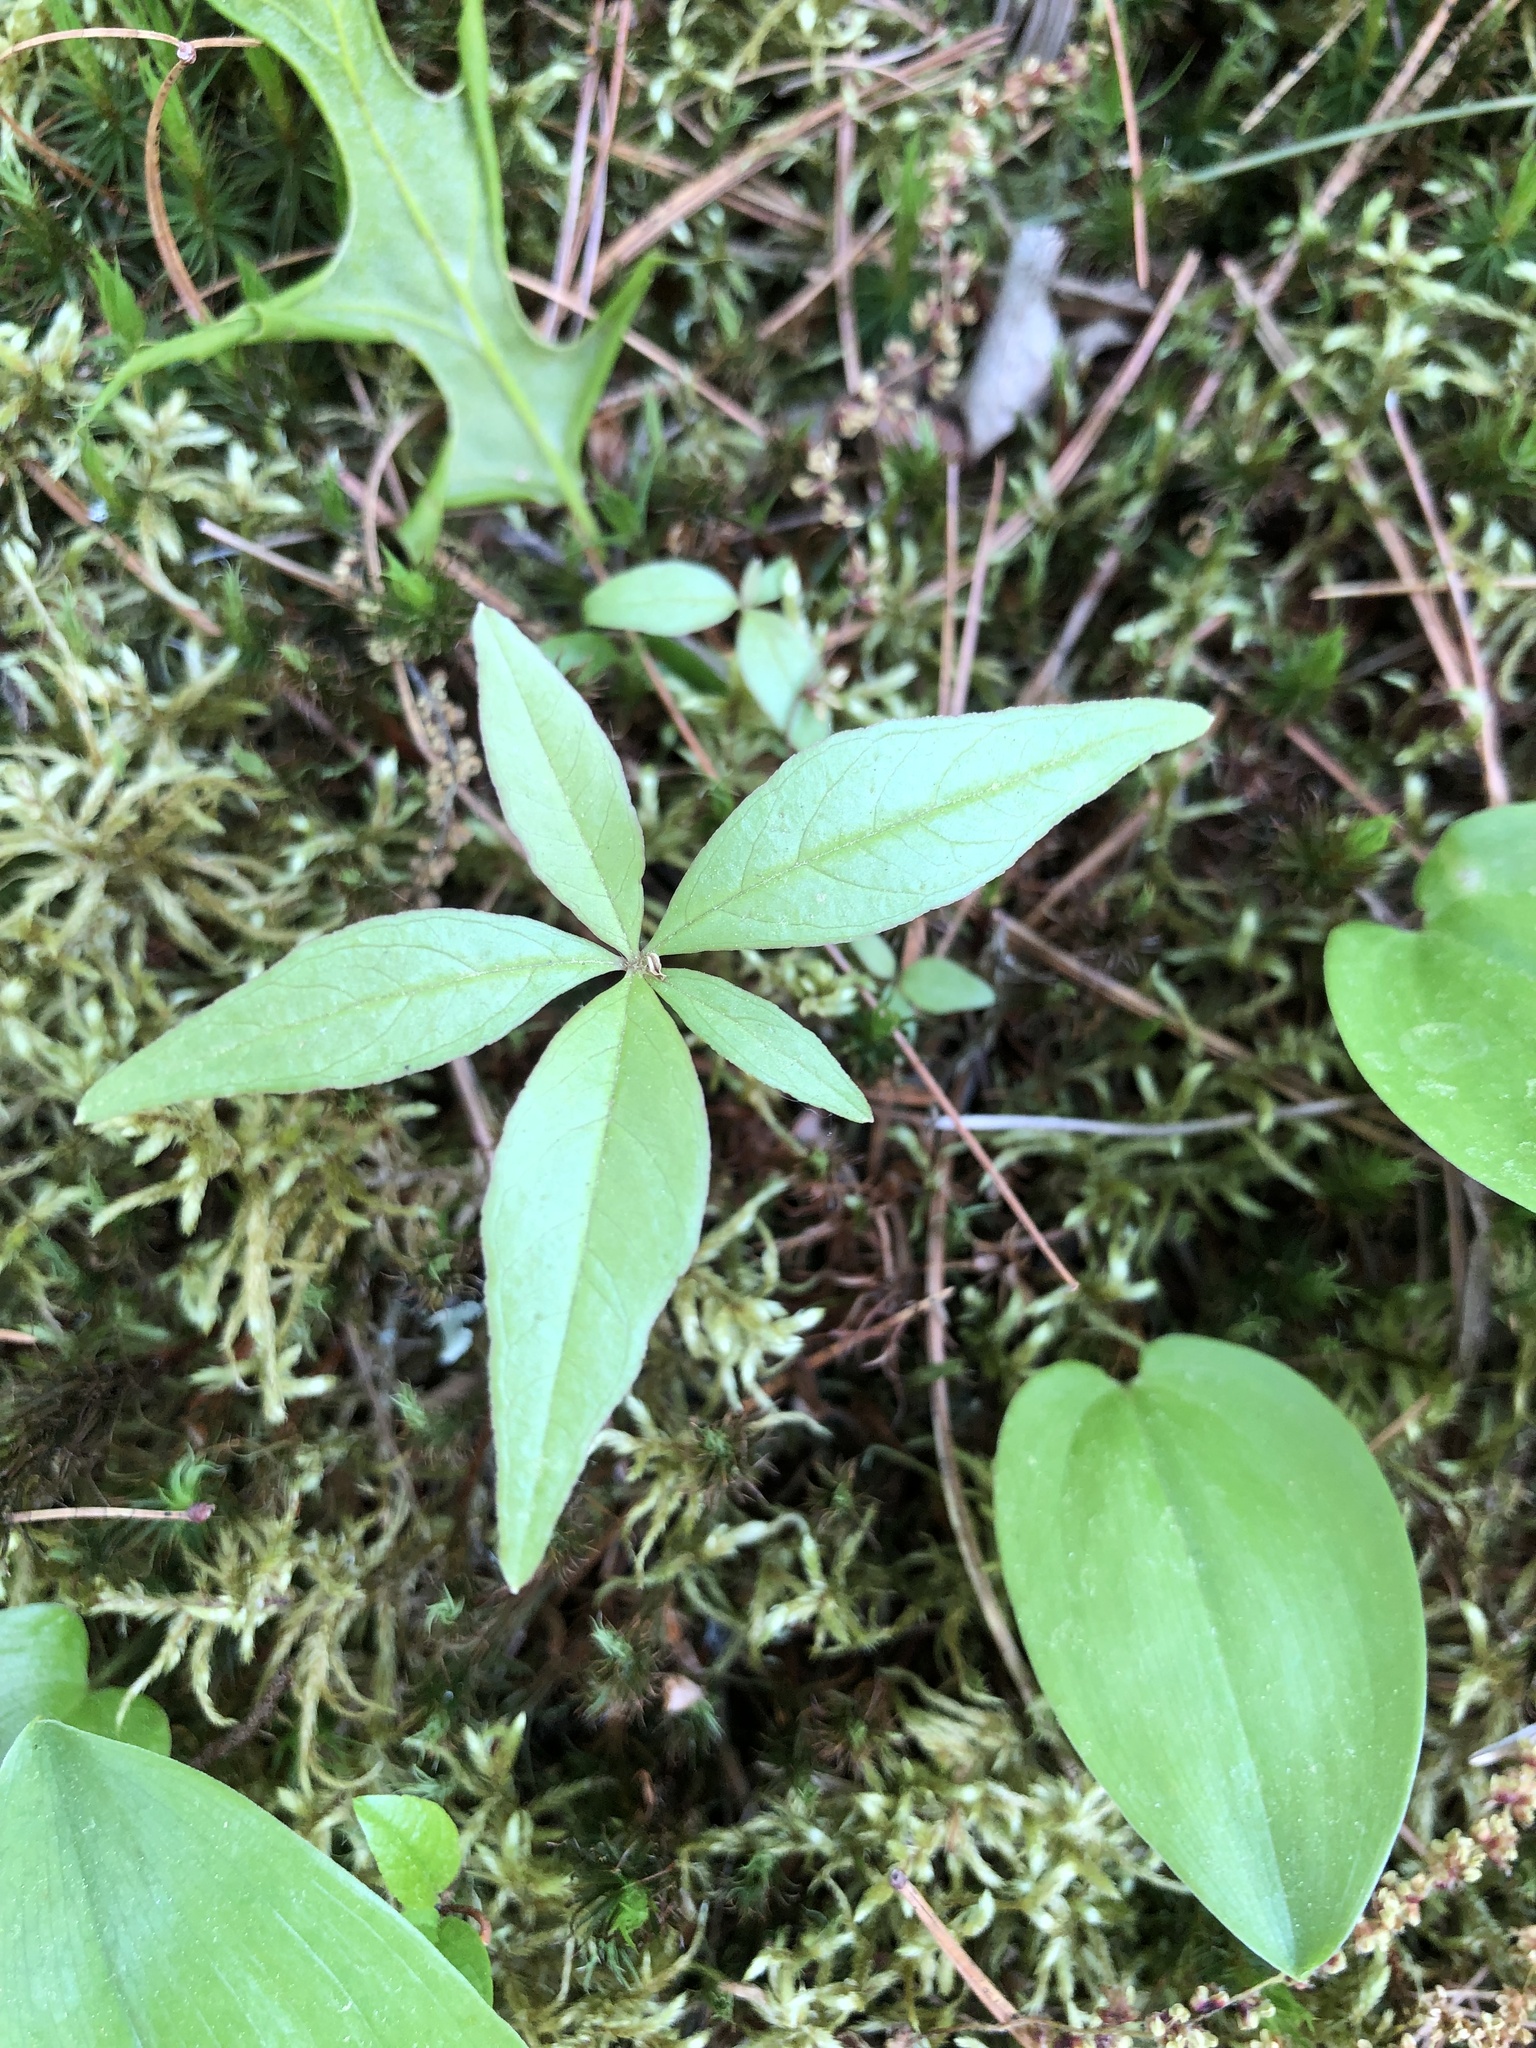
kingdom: Plantae
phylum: Tracheophyta
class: Magnoliopsida
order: Ericales
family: Primulaceae
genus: Lysimachia
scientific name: Lysimachia borealis
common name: American starflower
